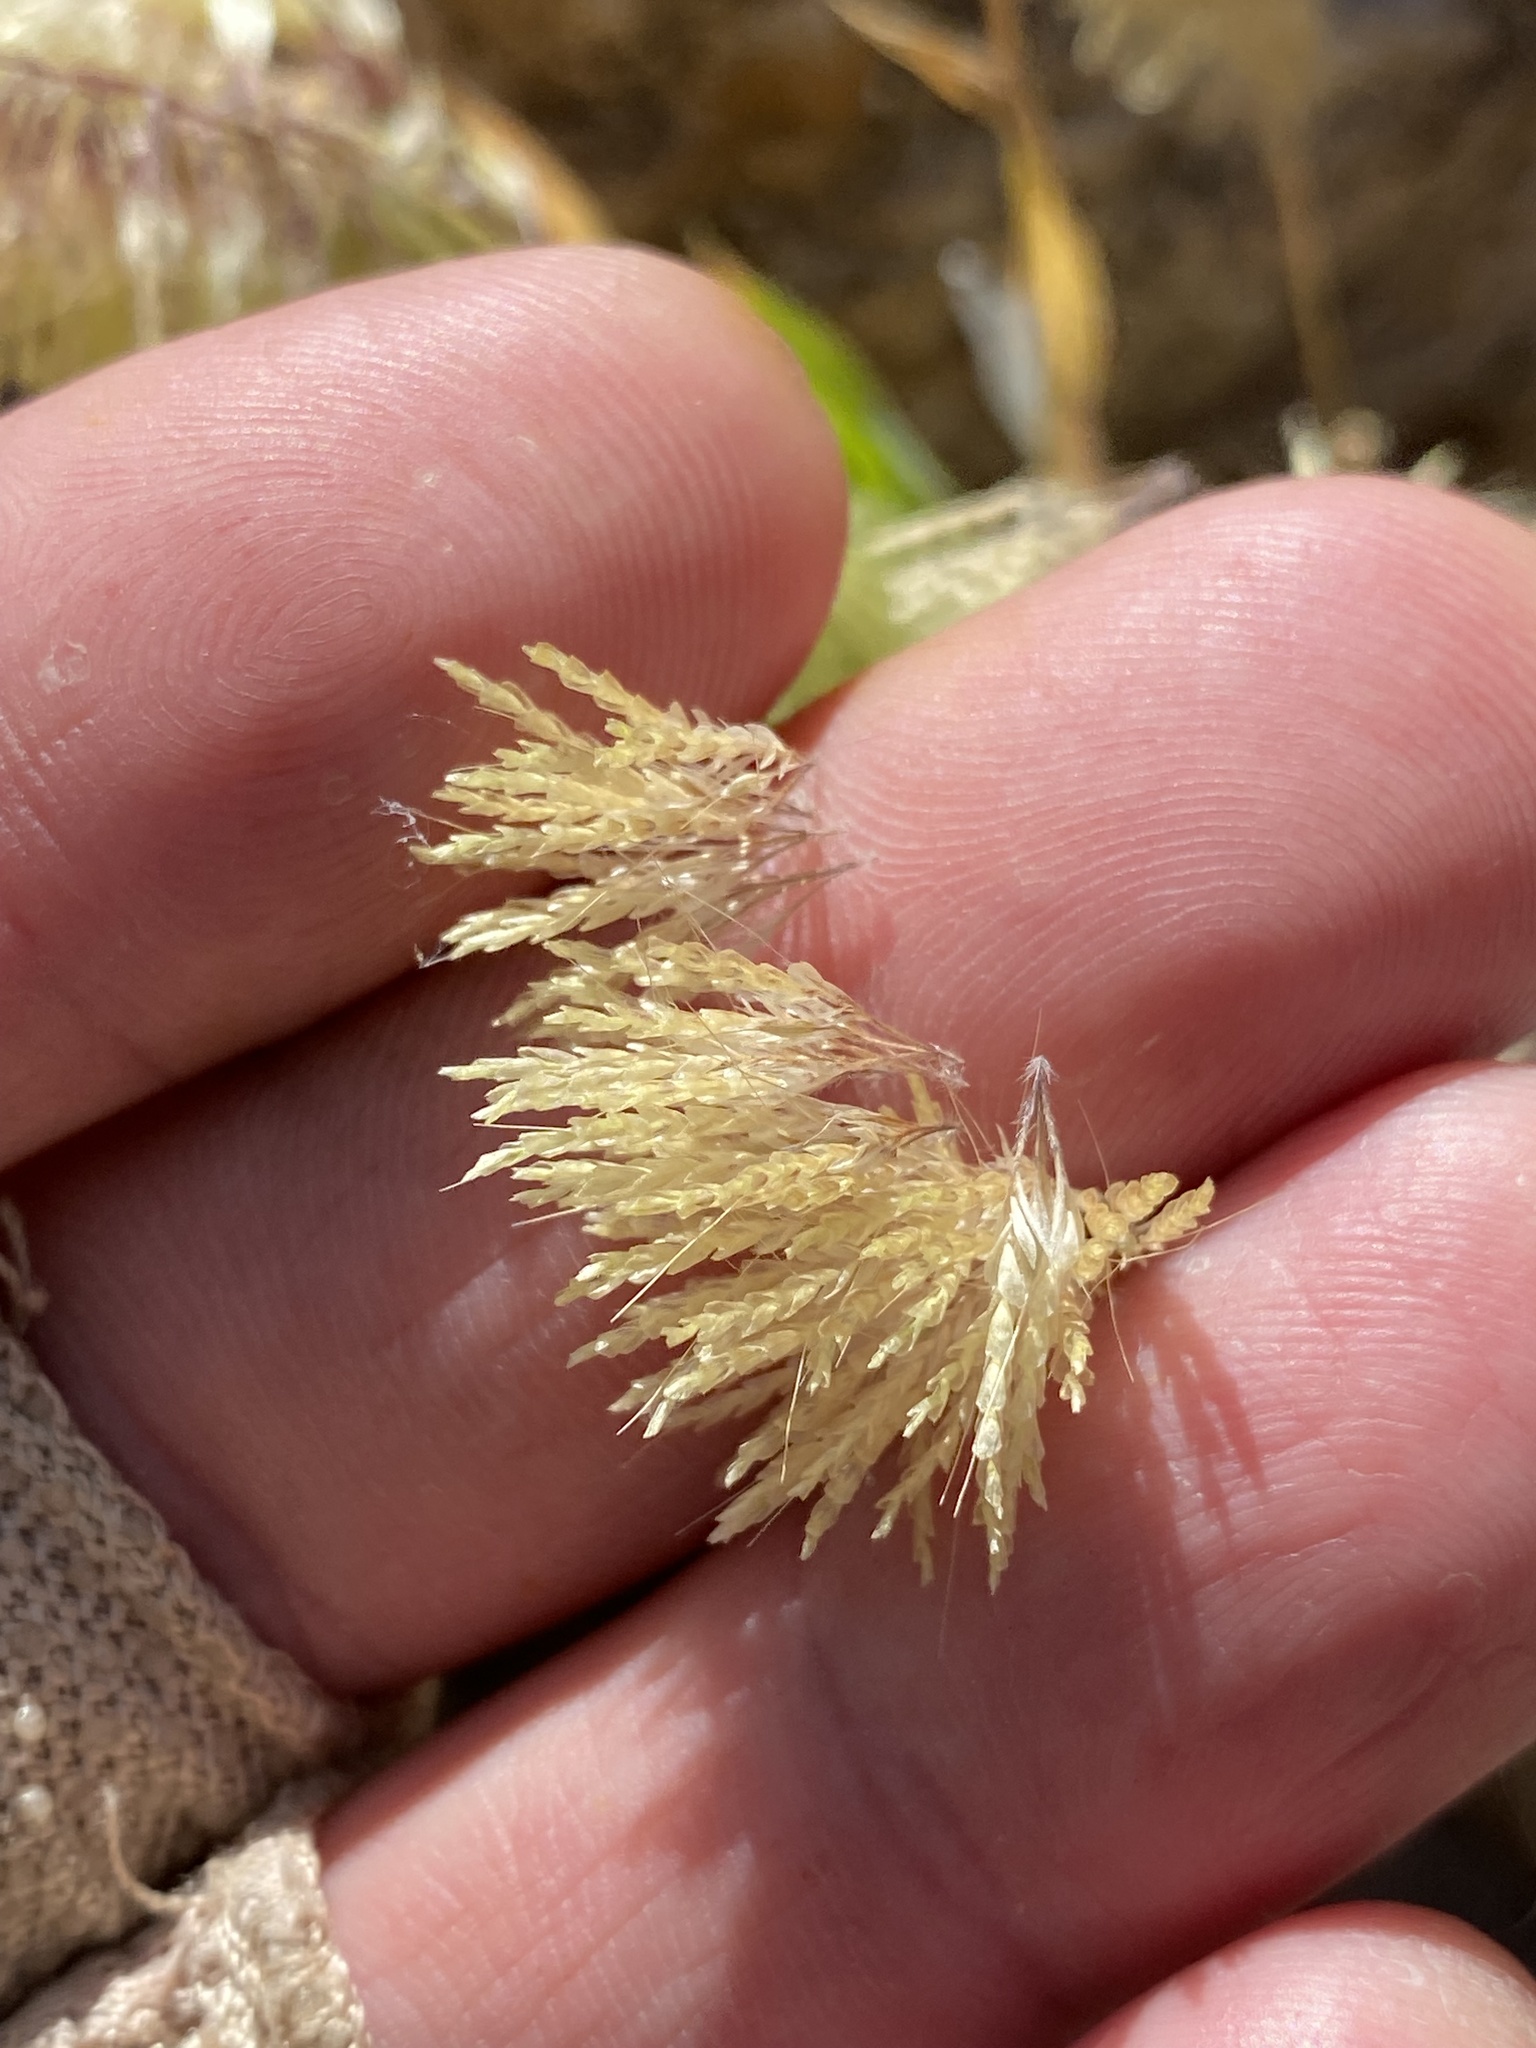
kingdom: Plantae
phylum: Tracheophyta
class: Liliopsida
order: Poales
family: Poaceae
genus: Lamarckia
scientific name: Lamarckia aurea
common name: Golden dog's-tail
